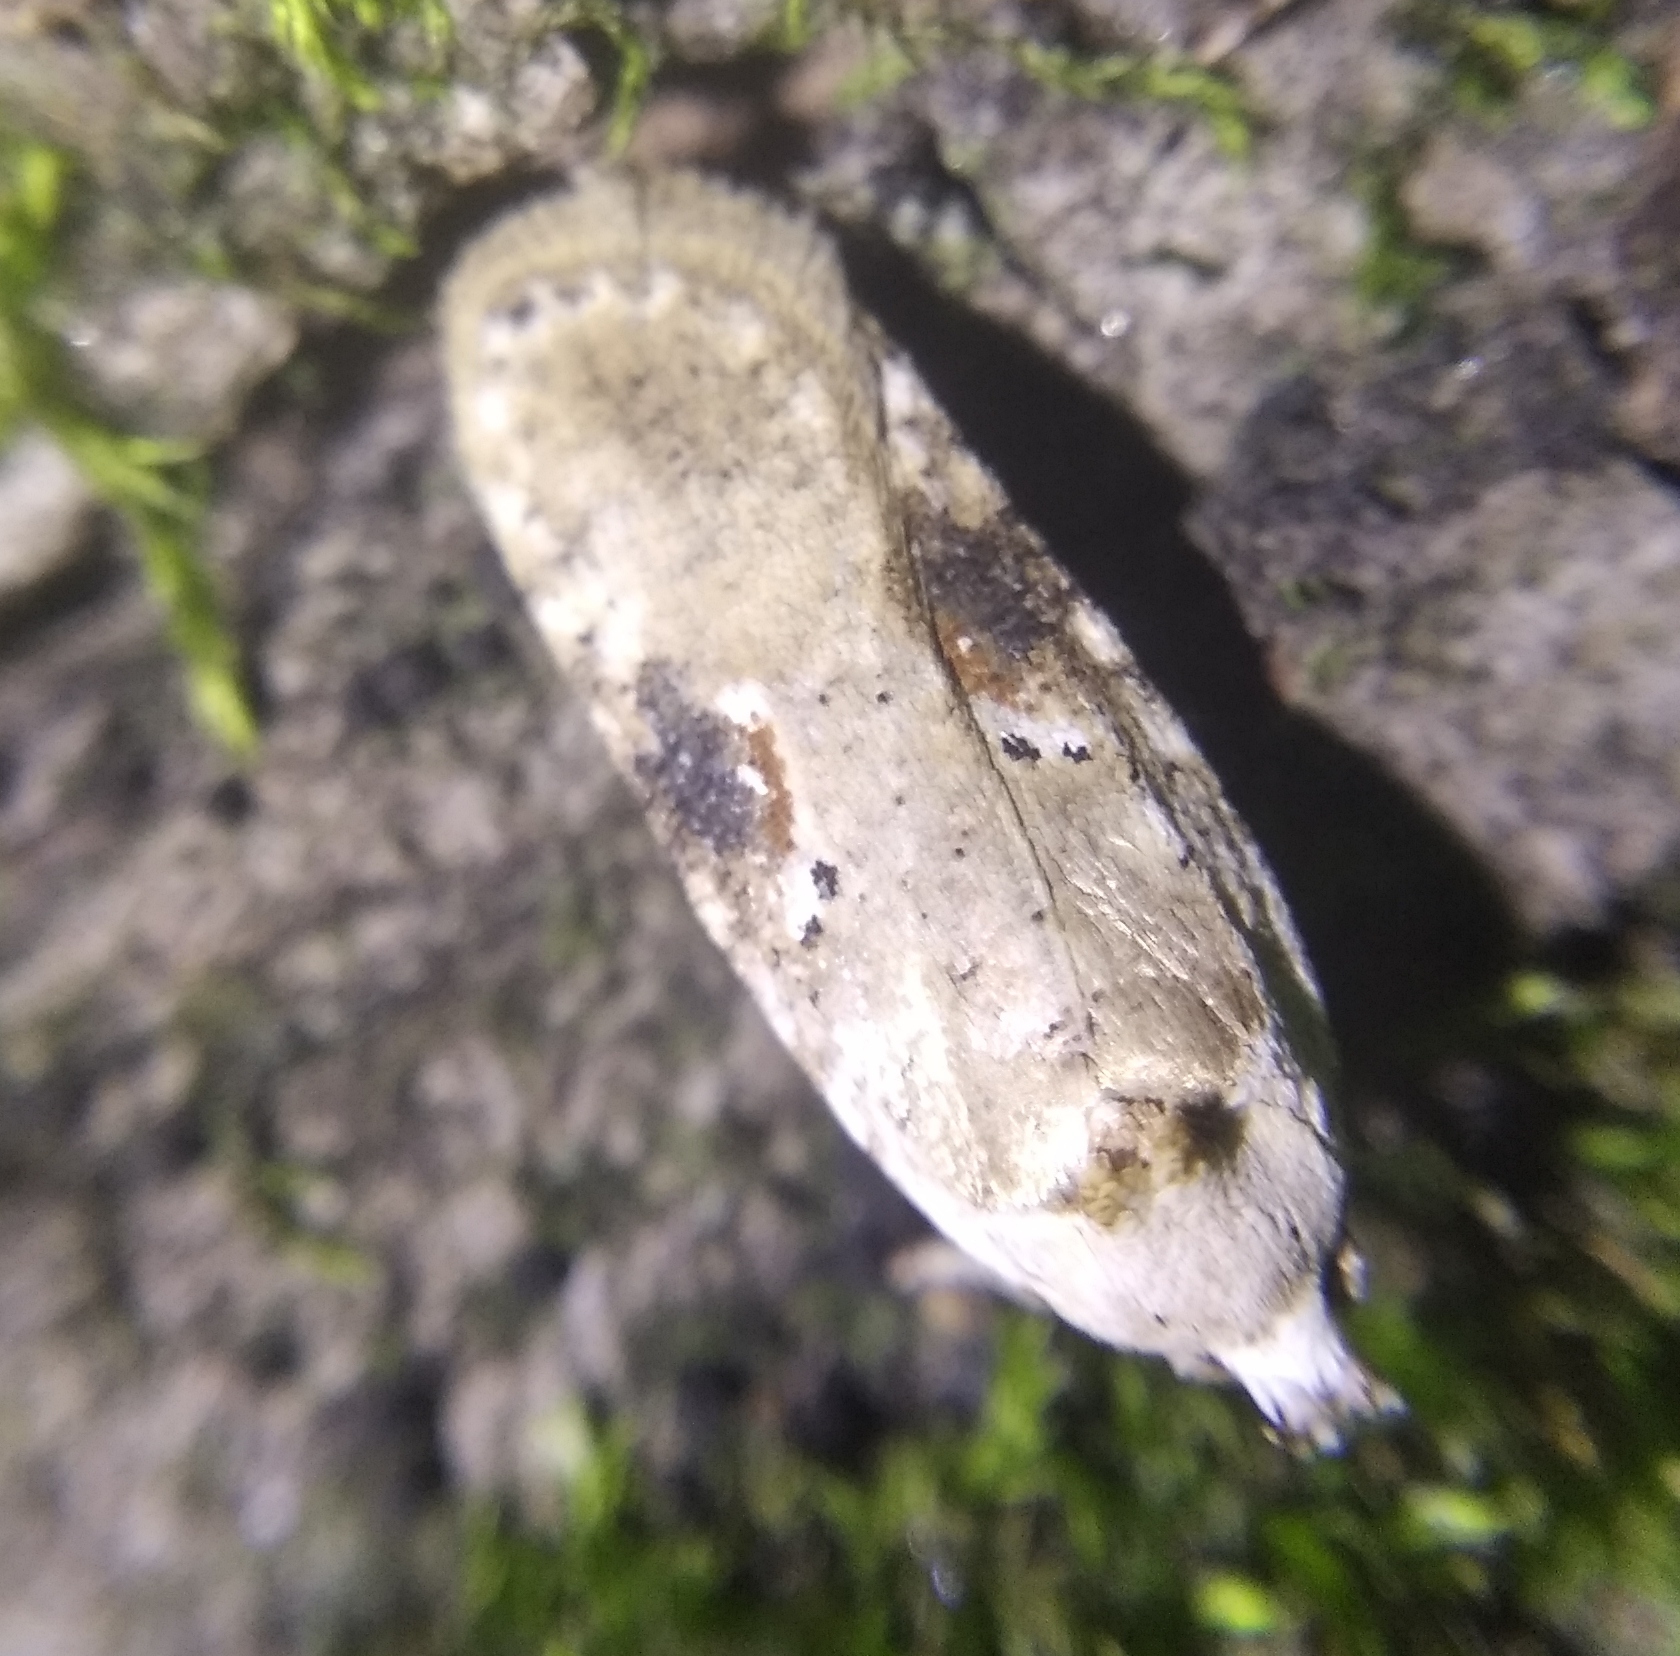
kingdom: Animalia
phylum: Arthropoda
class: Insecta
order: Lepidoptera
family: Depressariidae
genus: Agonopterix
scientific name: Agonopterix alstroemeriana
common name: Moth
